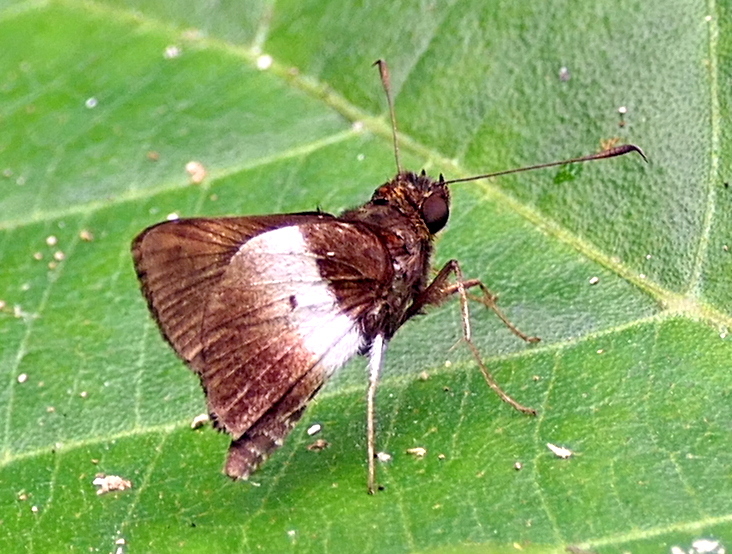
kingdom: Animalia
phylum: Arthropoda
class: Insecta
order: Lepidoptera
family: Hesperiidae
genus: Moeris
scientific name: Moeris remus
